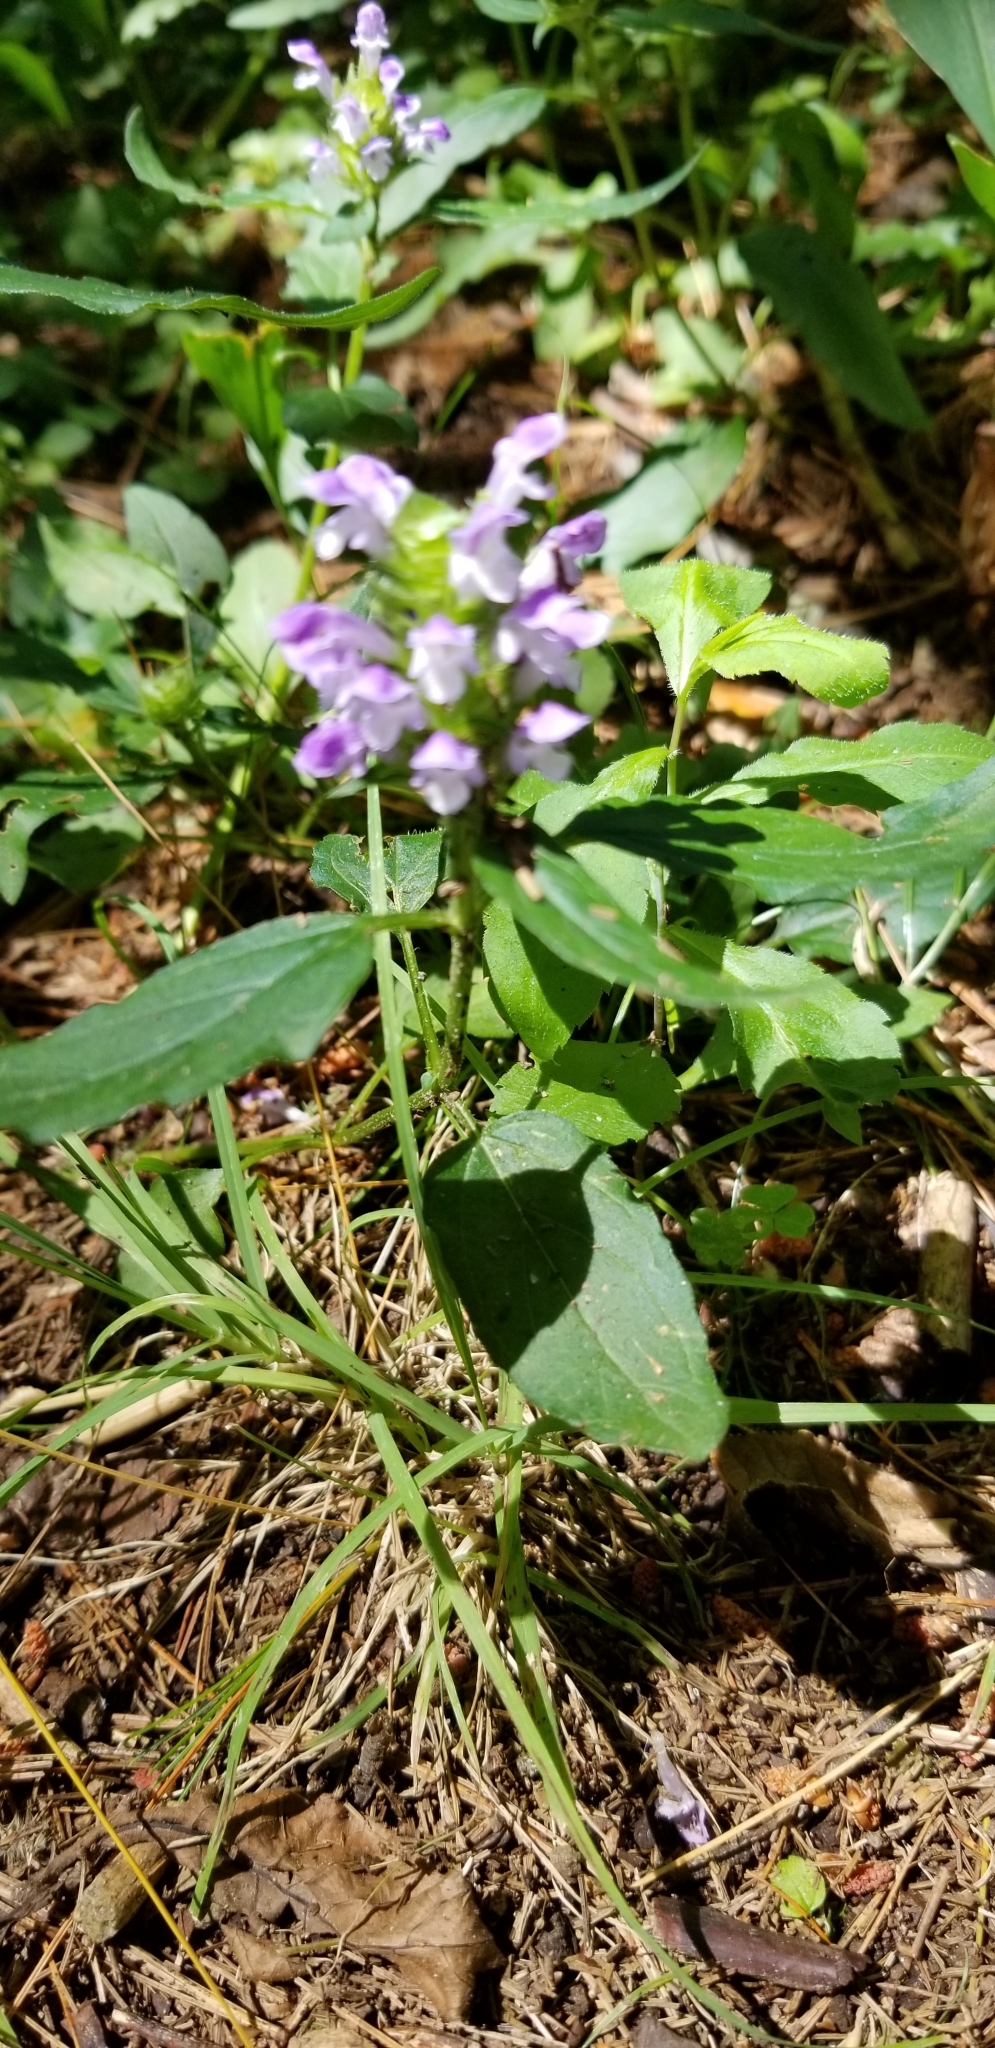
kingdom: Plantae
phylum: Tracheophyta
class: Magnoliopsida
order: Lamiales
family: Lamiaceae
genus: Prunella
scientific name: Prunella vulgaris
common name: Heal-all
